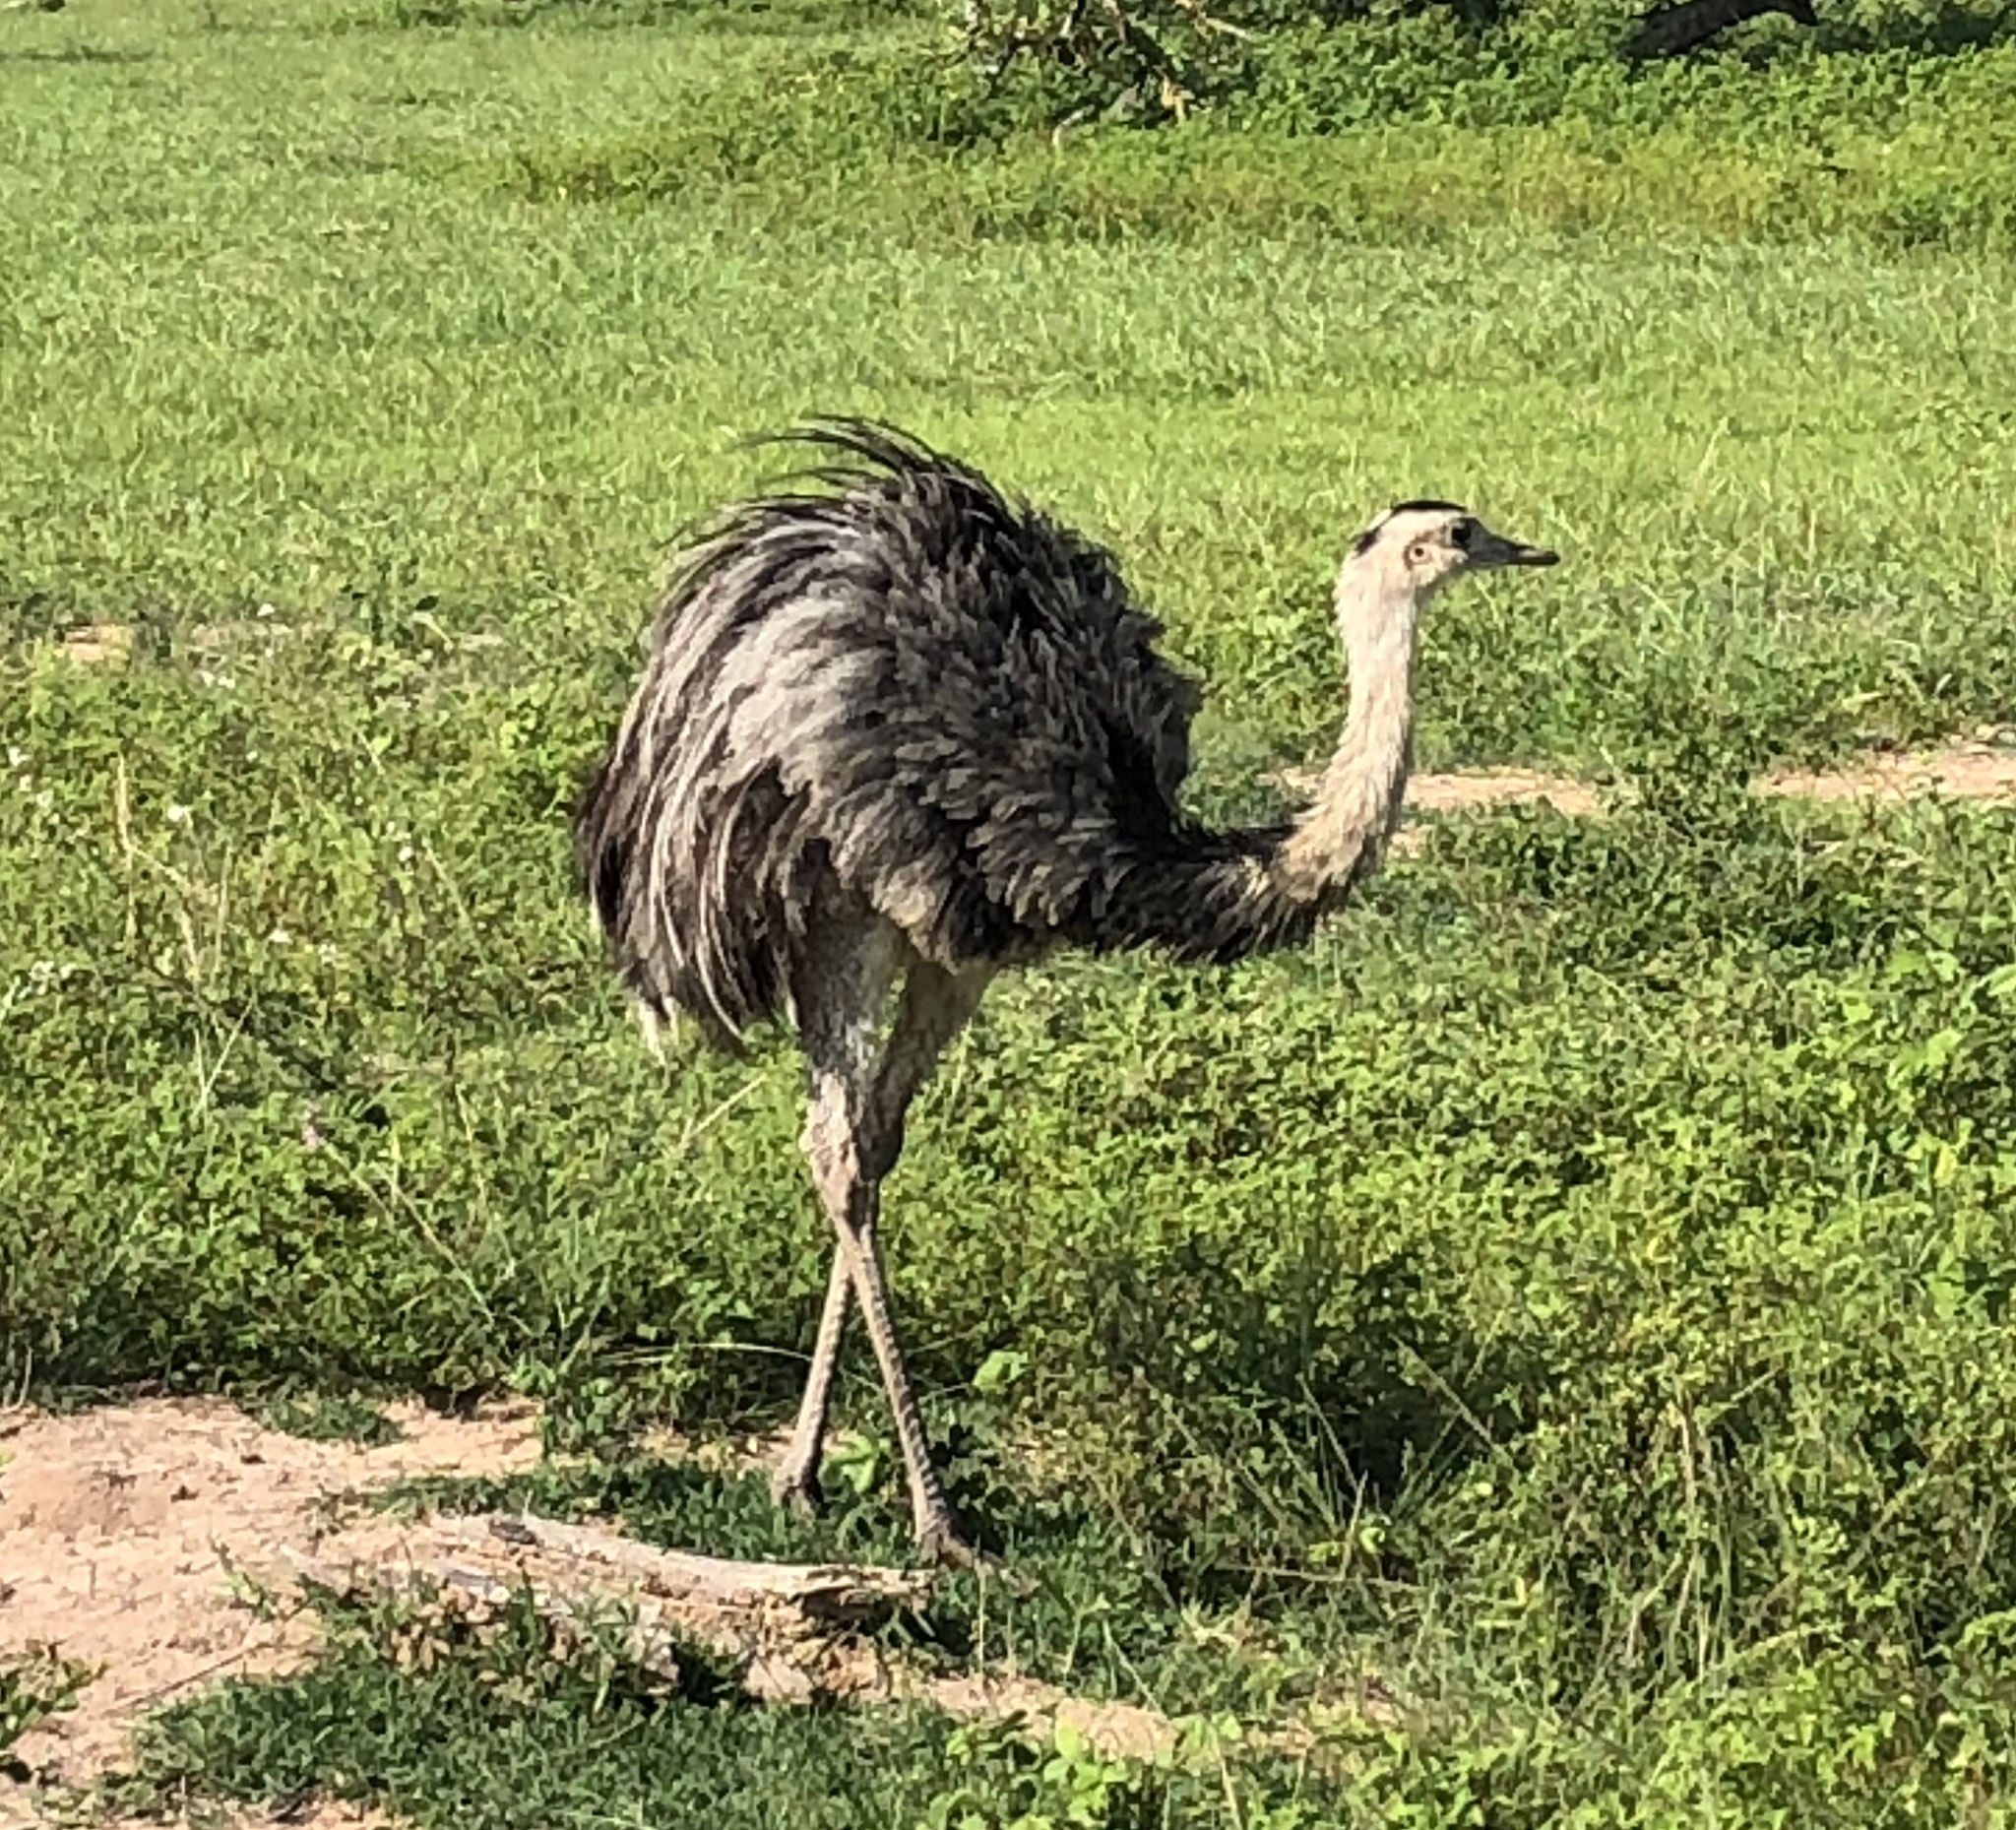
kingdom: Animalia
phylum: Chordata
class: Aves
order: Rheiformes
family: Rheidae
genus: Rhea
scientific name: Rhea americana
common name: Greater rhea
